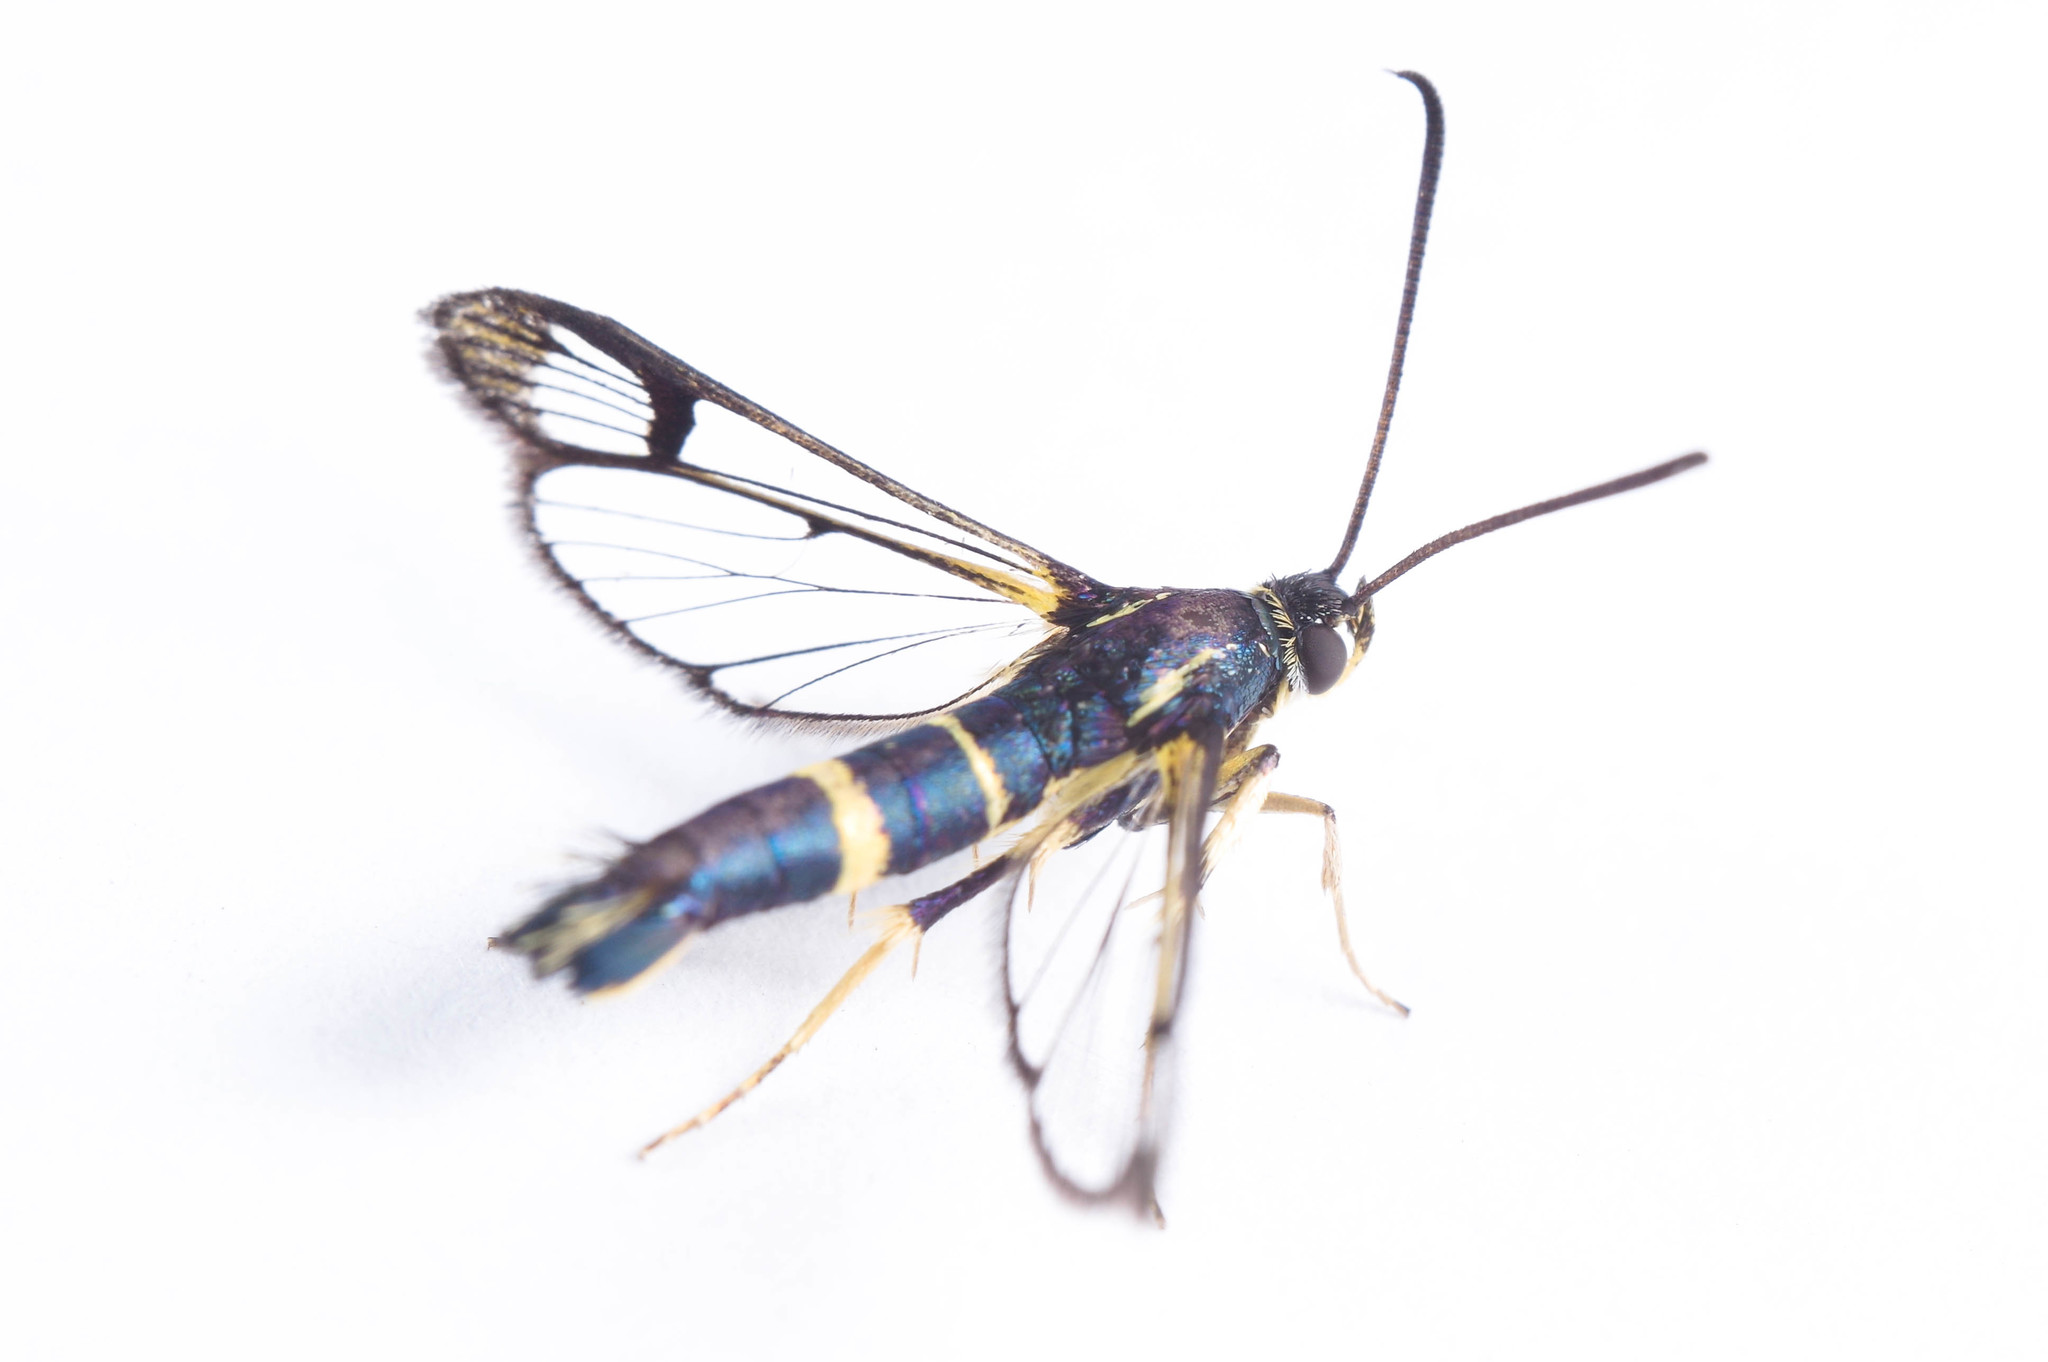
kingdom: Animalia
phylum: Arthropoda
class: Insecta
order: Lepidoptera
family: Sesiidae
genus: Synanthedon
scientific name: Synanthedon scitula
